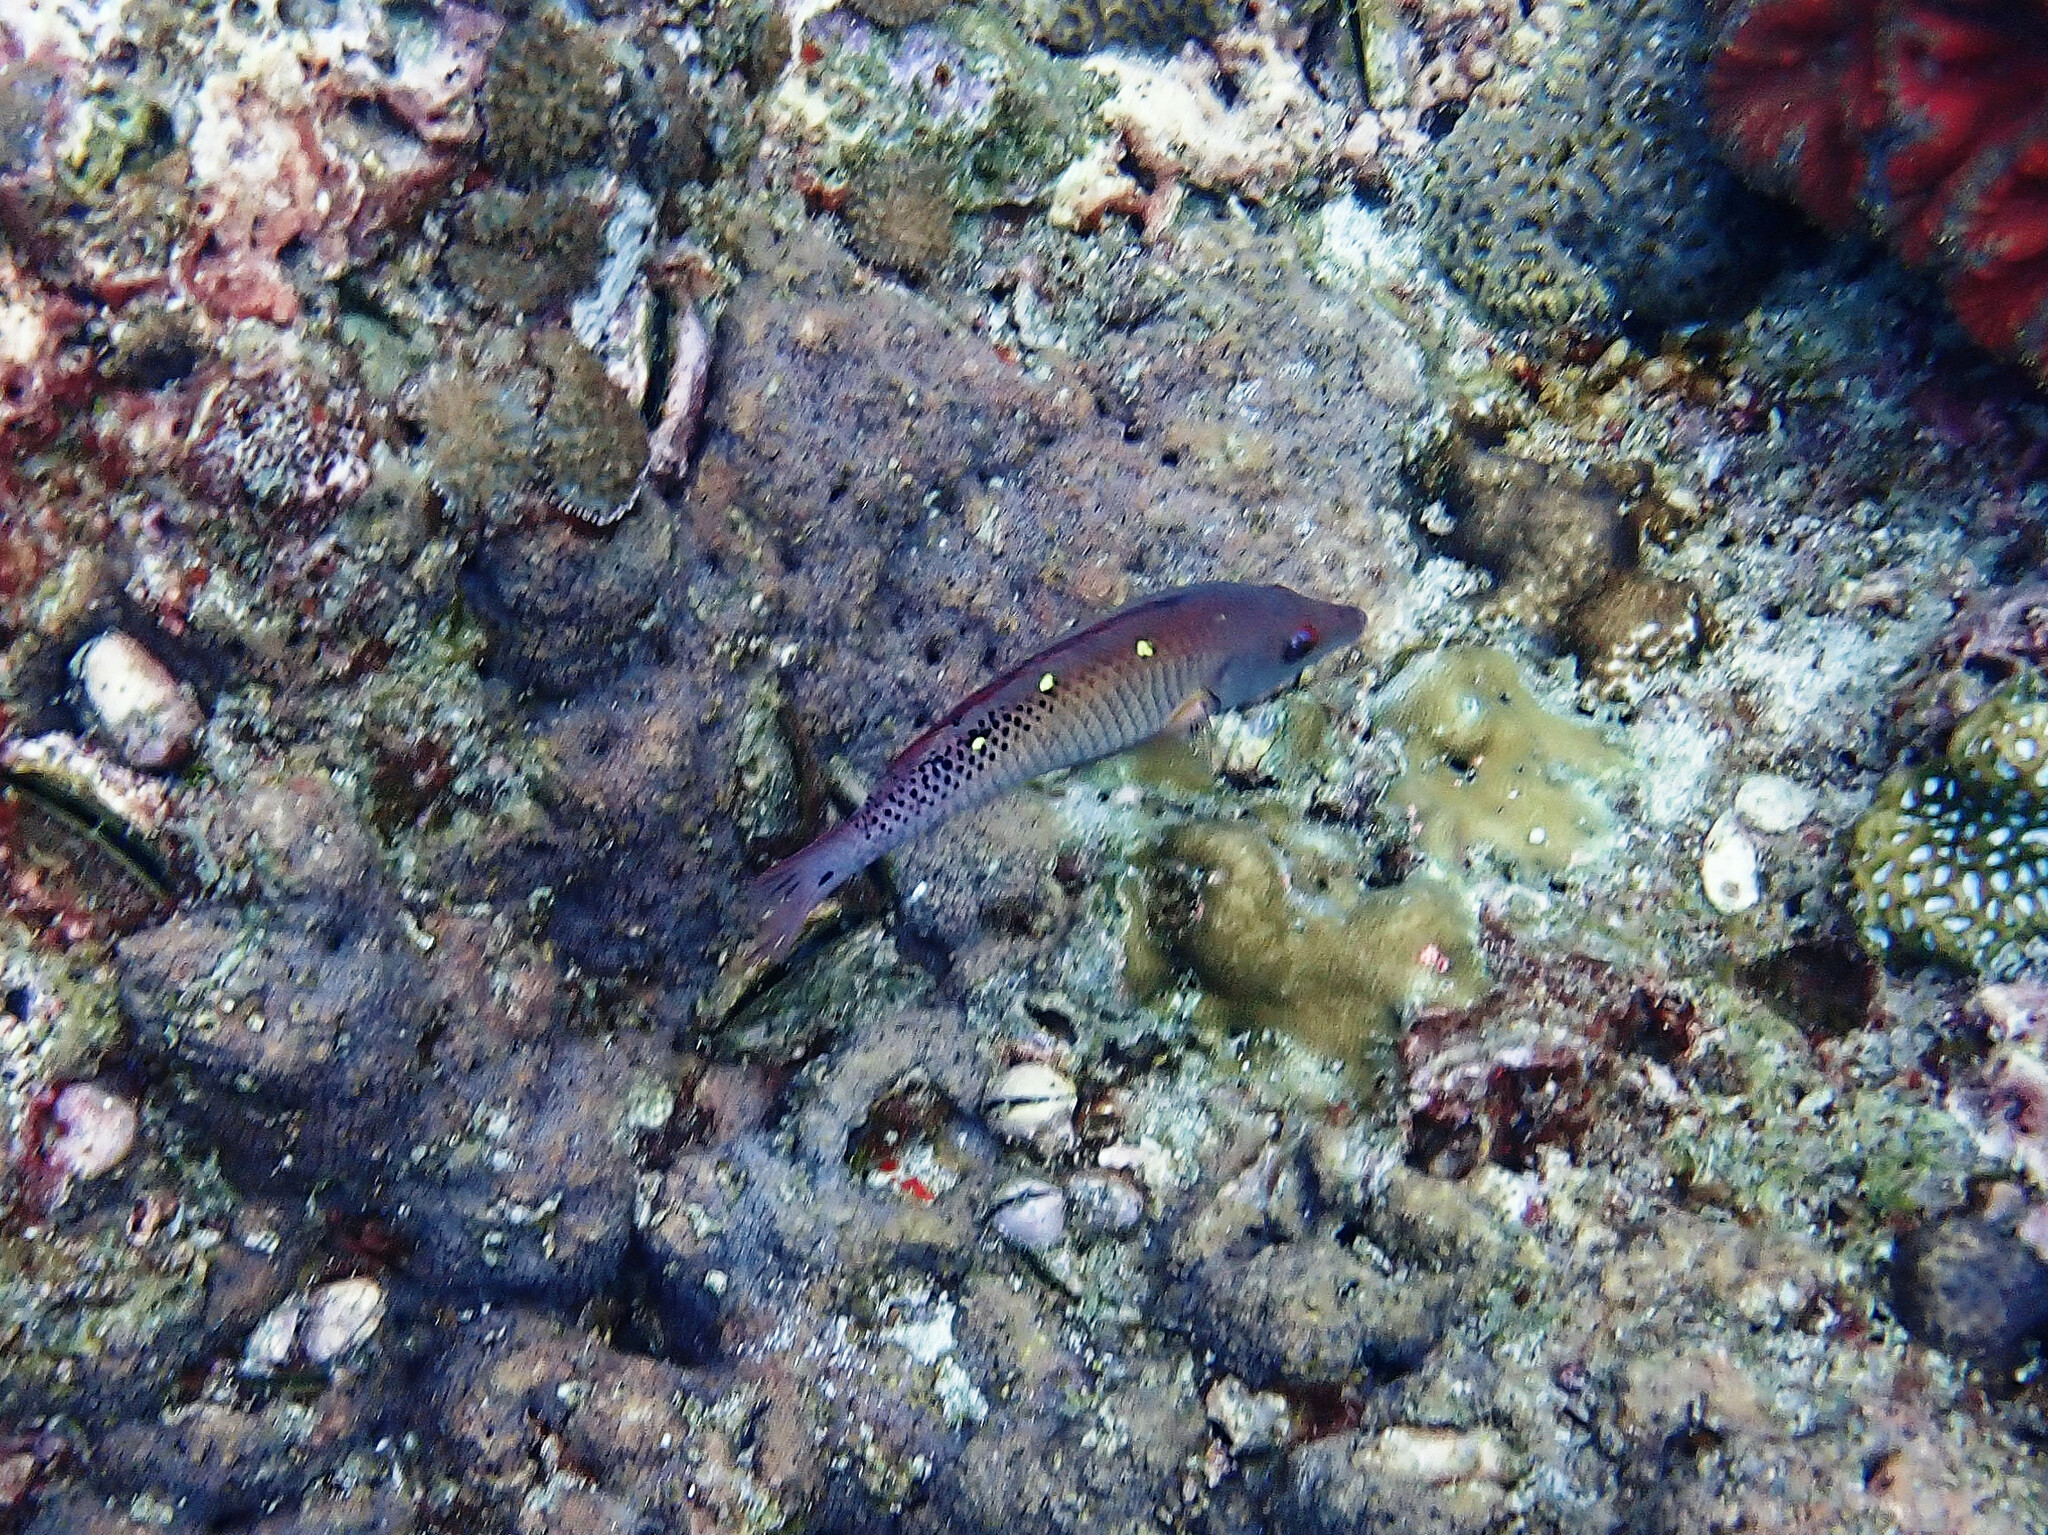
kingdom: Animalia
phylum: Chordata
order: Perciformes
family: Labridae
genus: Bodianus
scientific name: Bodianus diana
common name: Diana's hogfish
